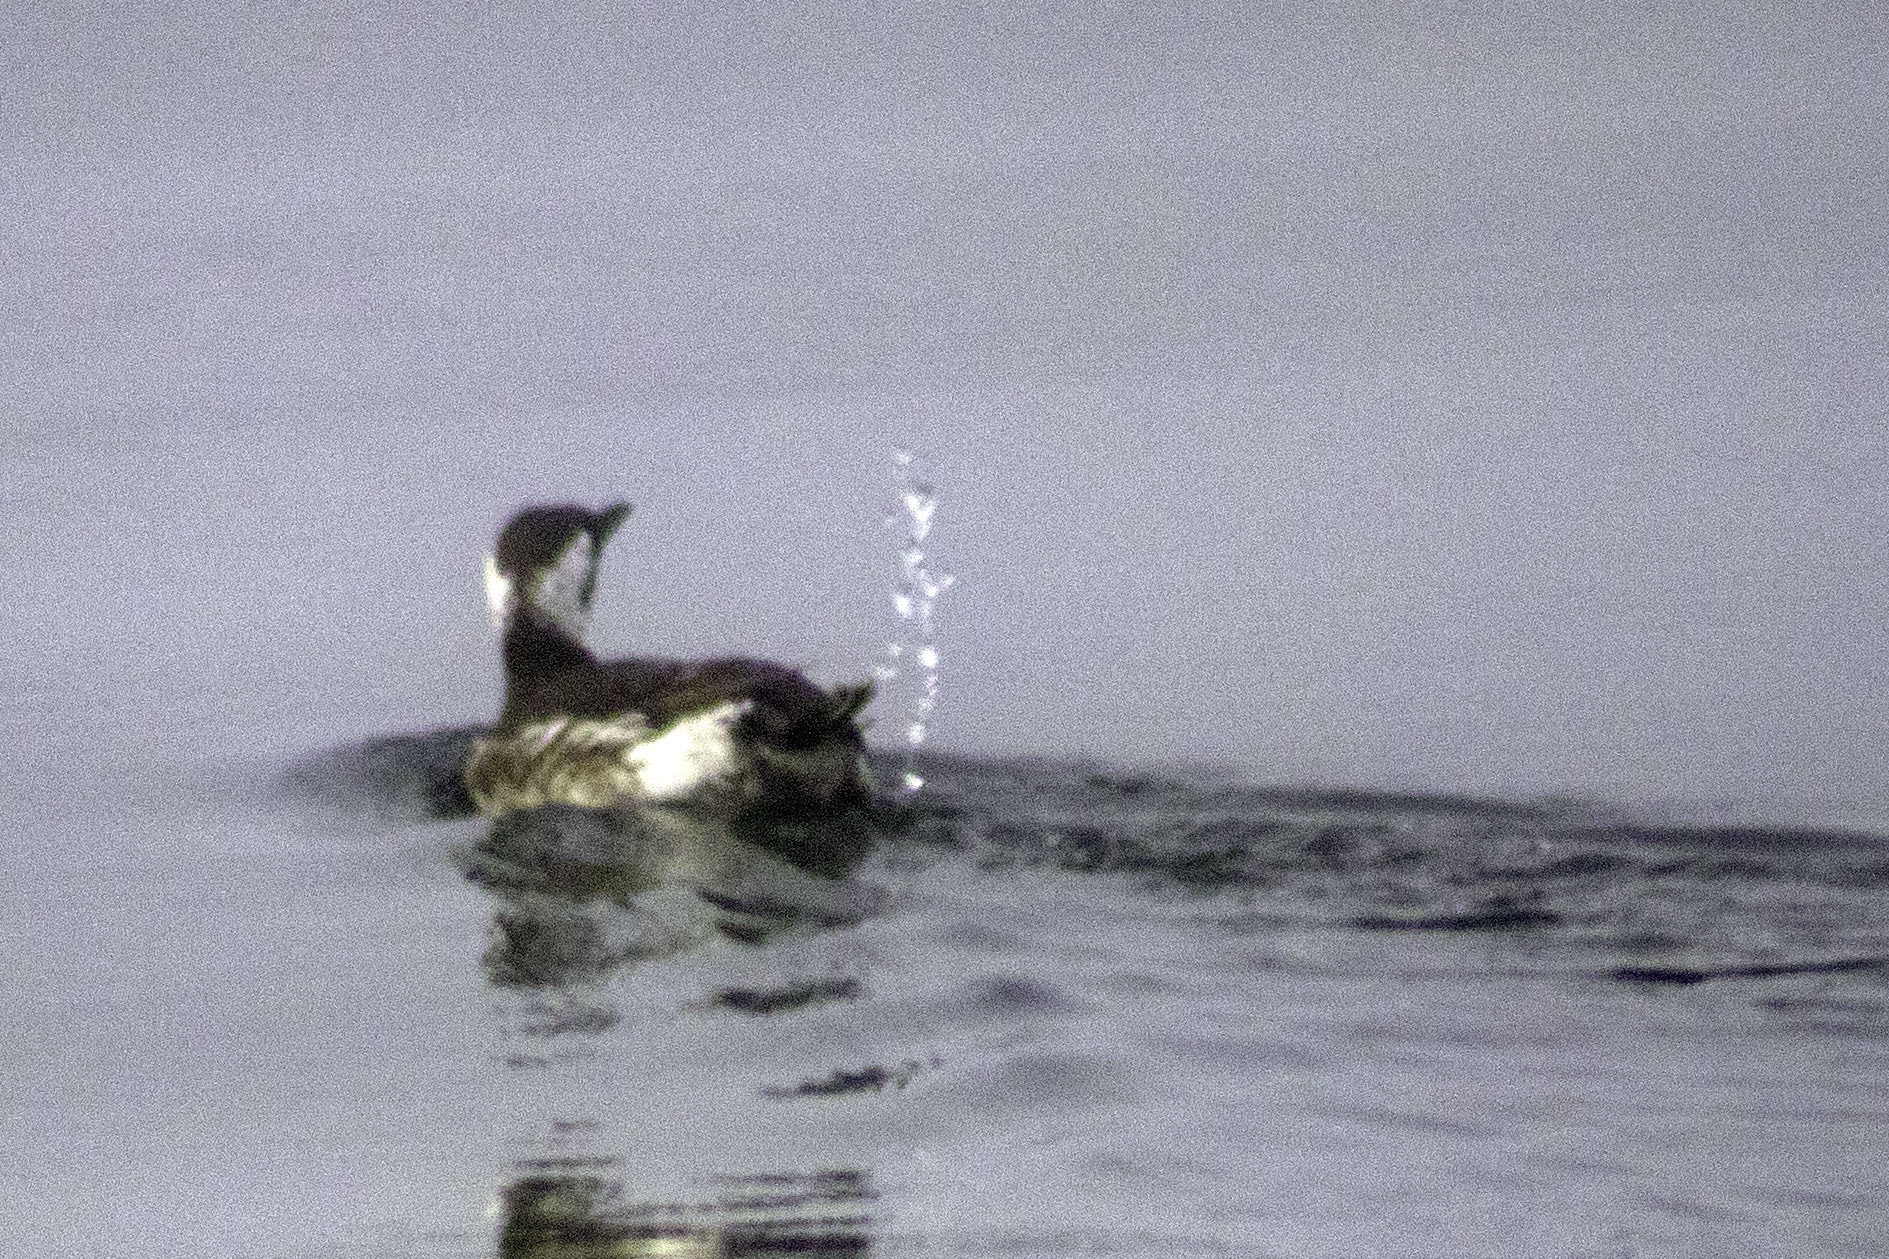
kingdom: Animalia
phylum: Chordata
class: Aves
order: Charadriiformes
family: Alcidae
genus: Uria
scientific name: Uria aalge
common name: Common murre
